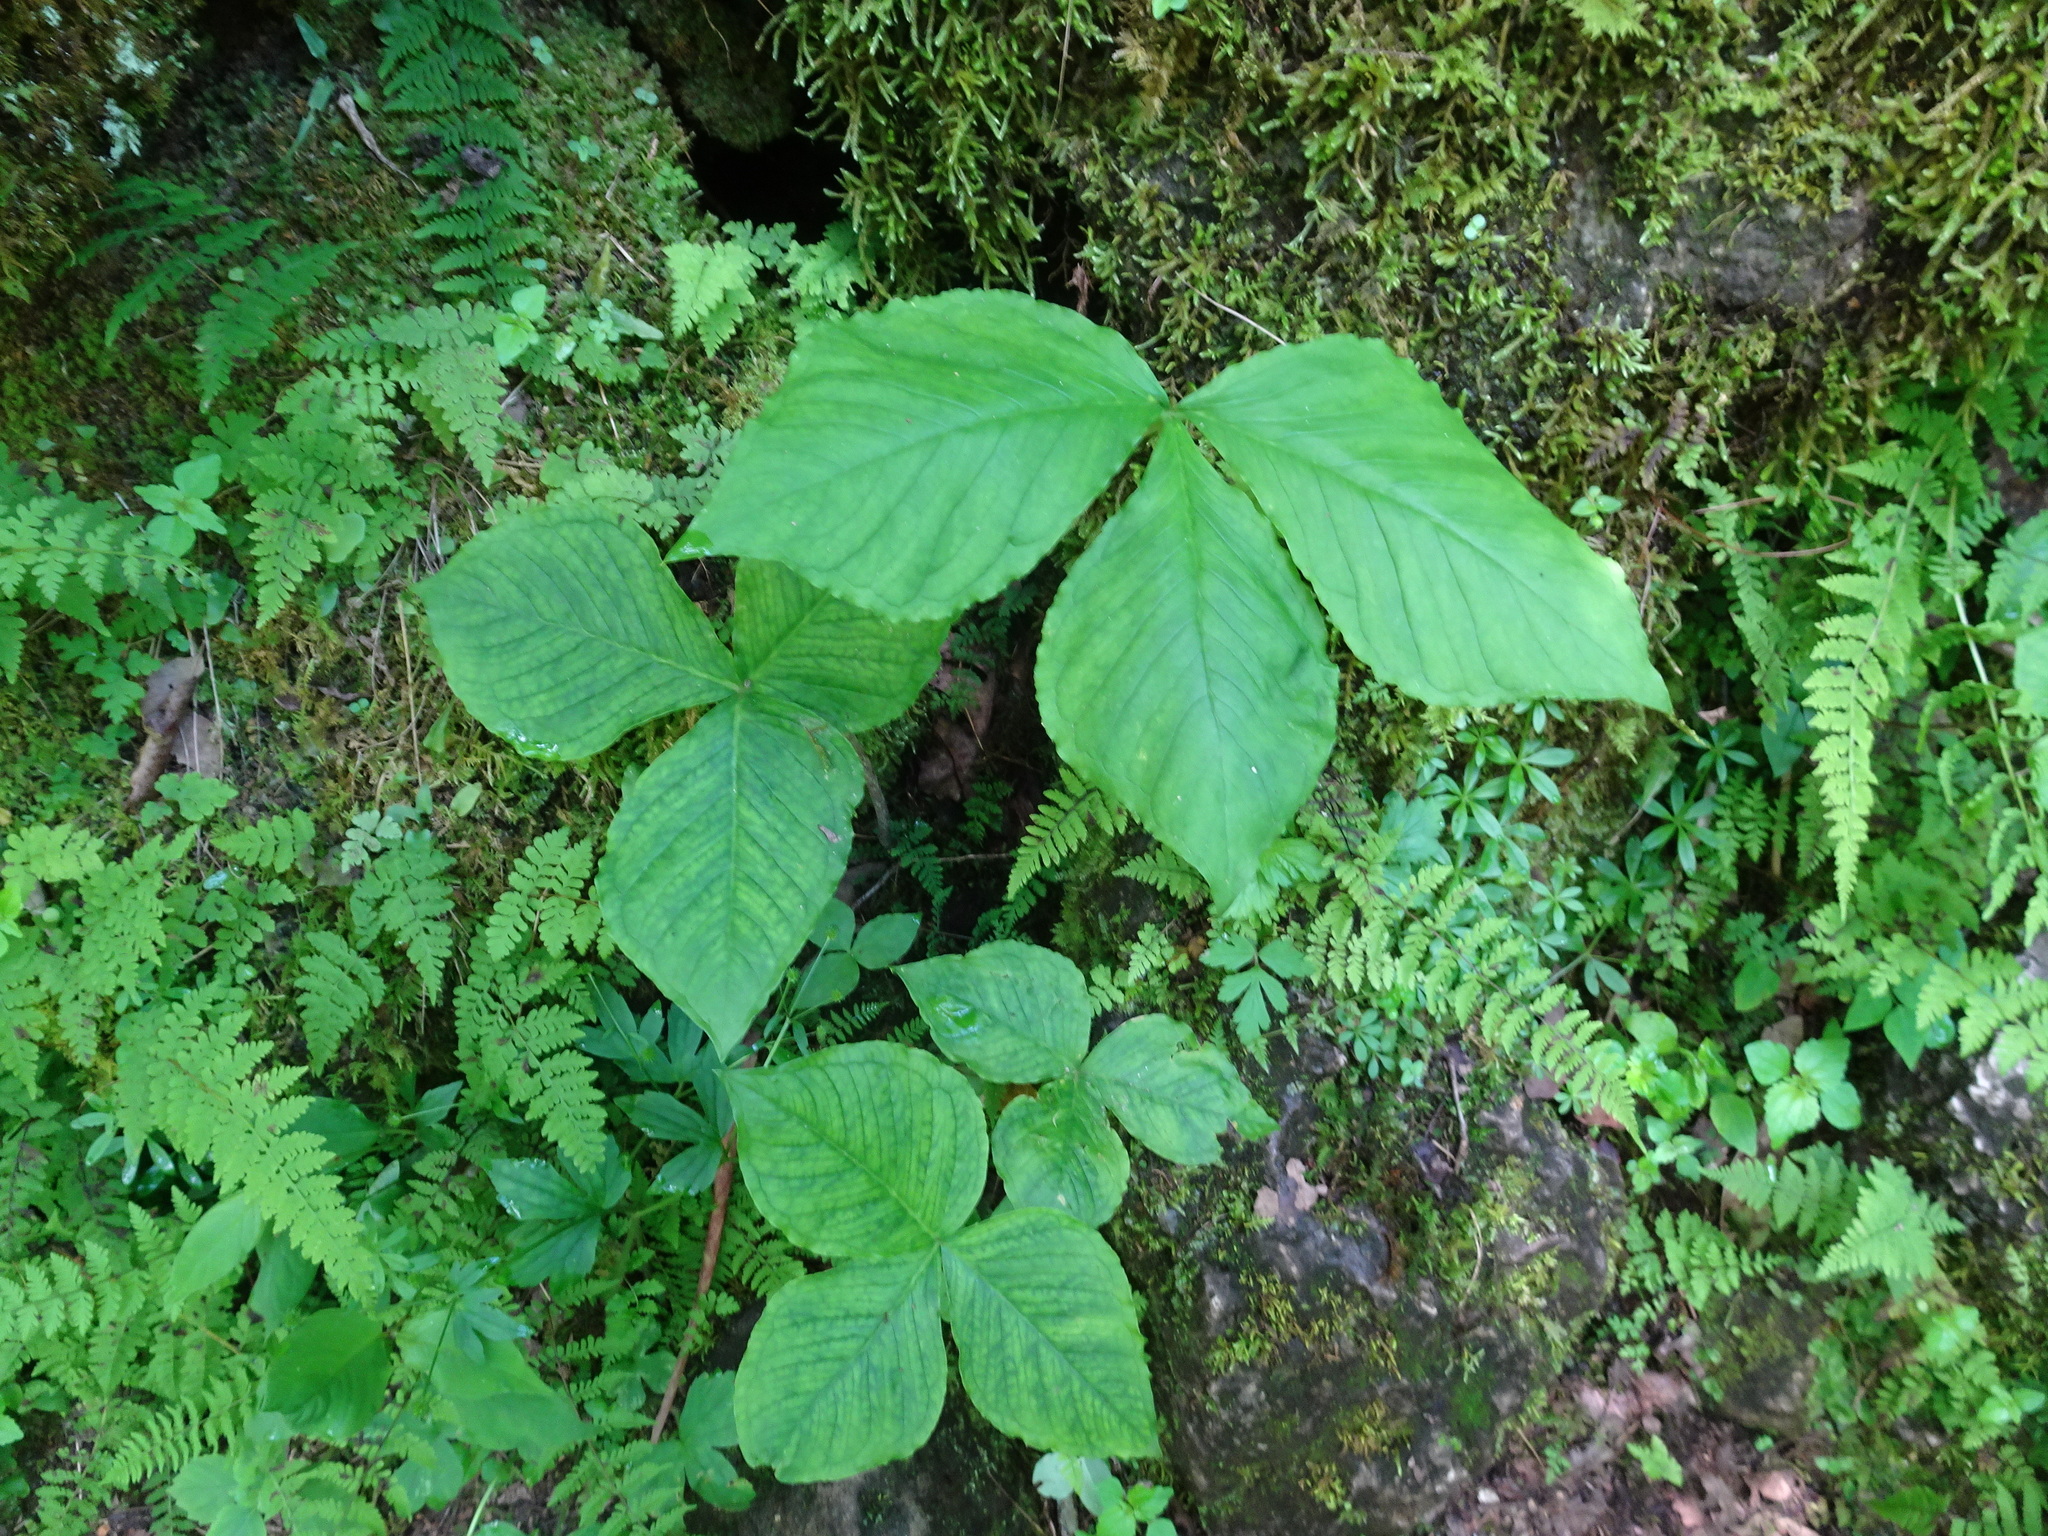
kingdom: Plantae
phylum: Tracheophyta
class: Liliopsida
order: Alismatales
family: Araceae
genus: Arisaema
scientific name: Arisaema triphyllum
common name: Jack-in-the-pulpit
